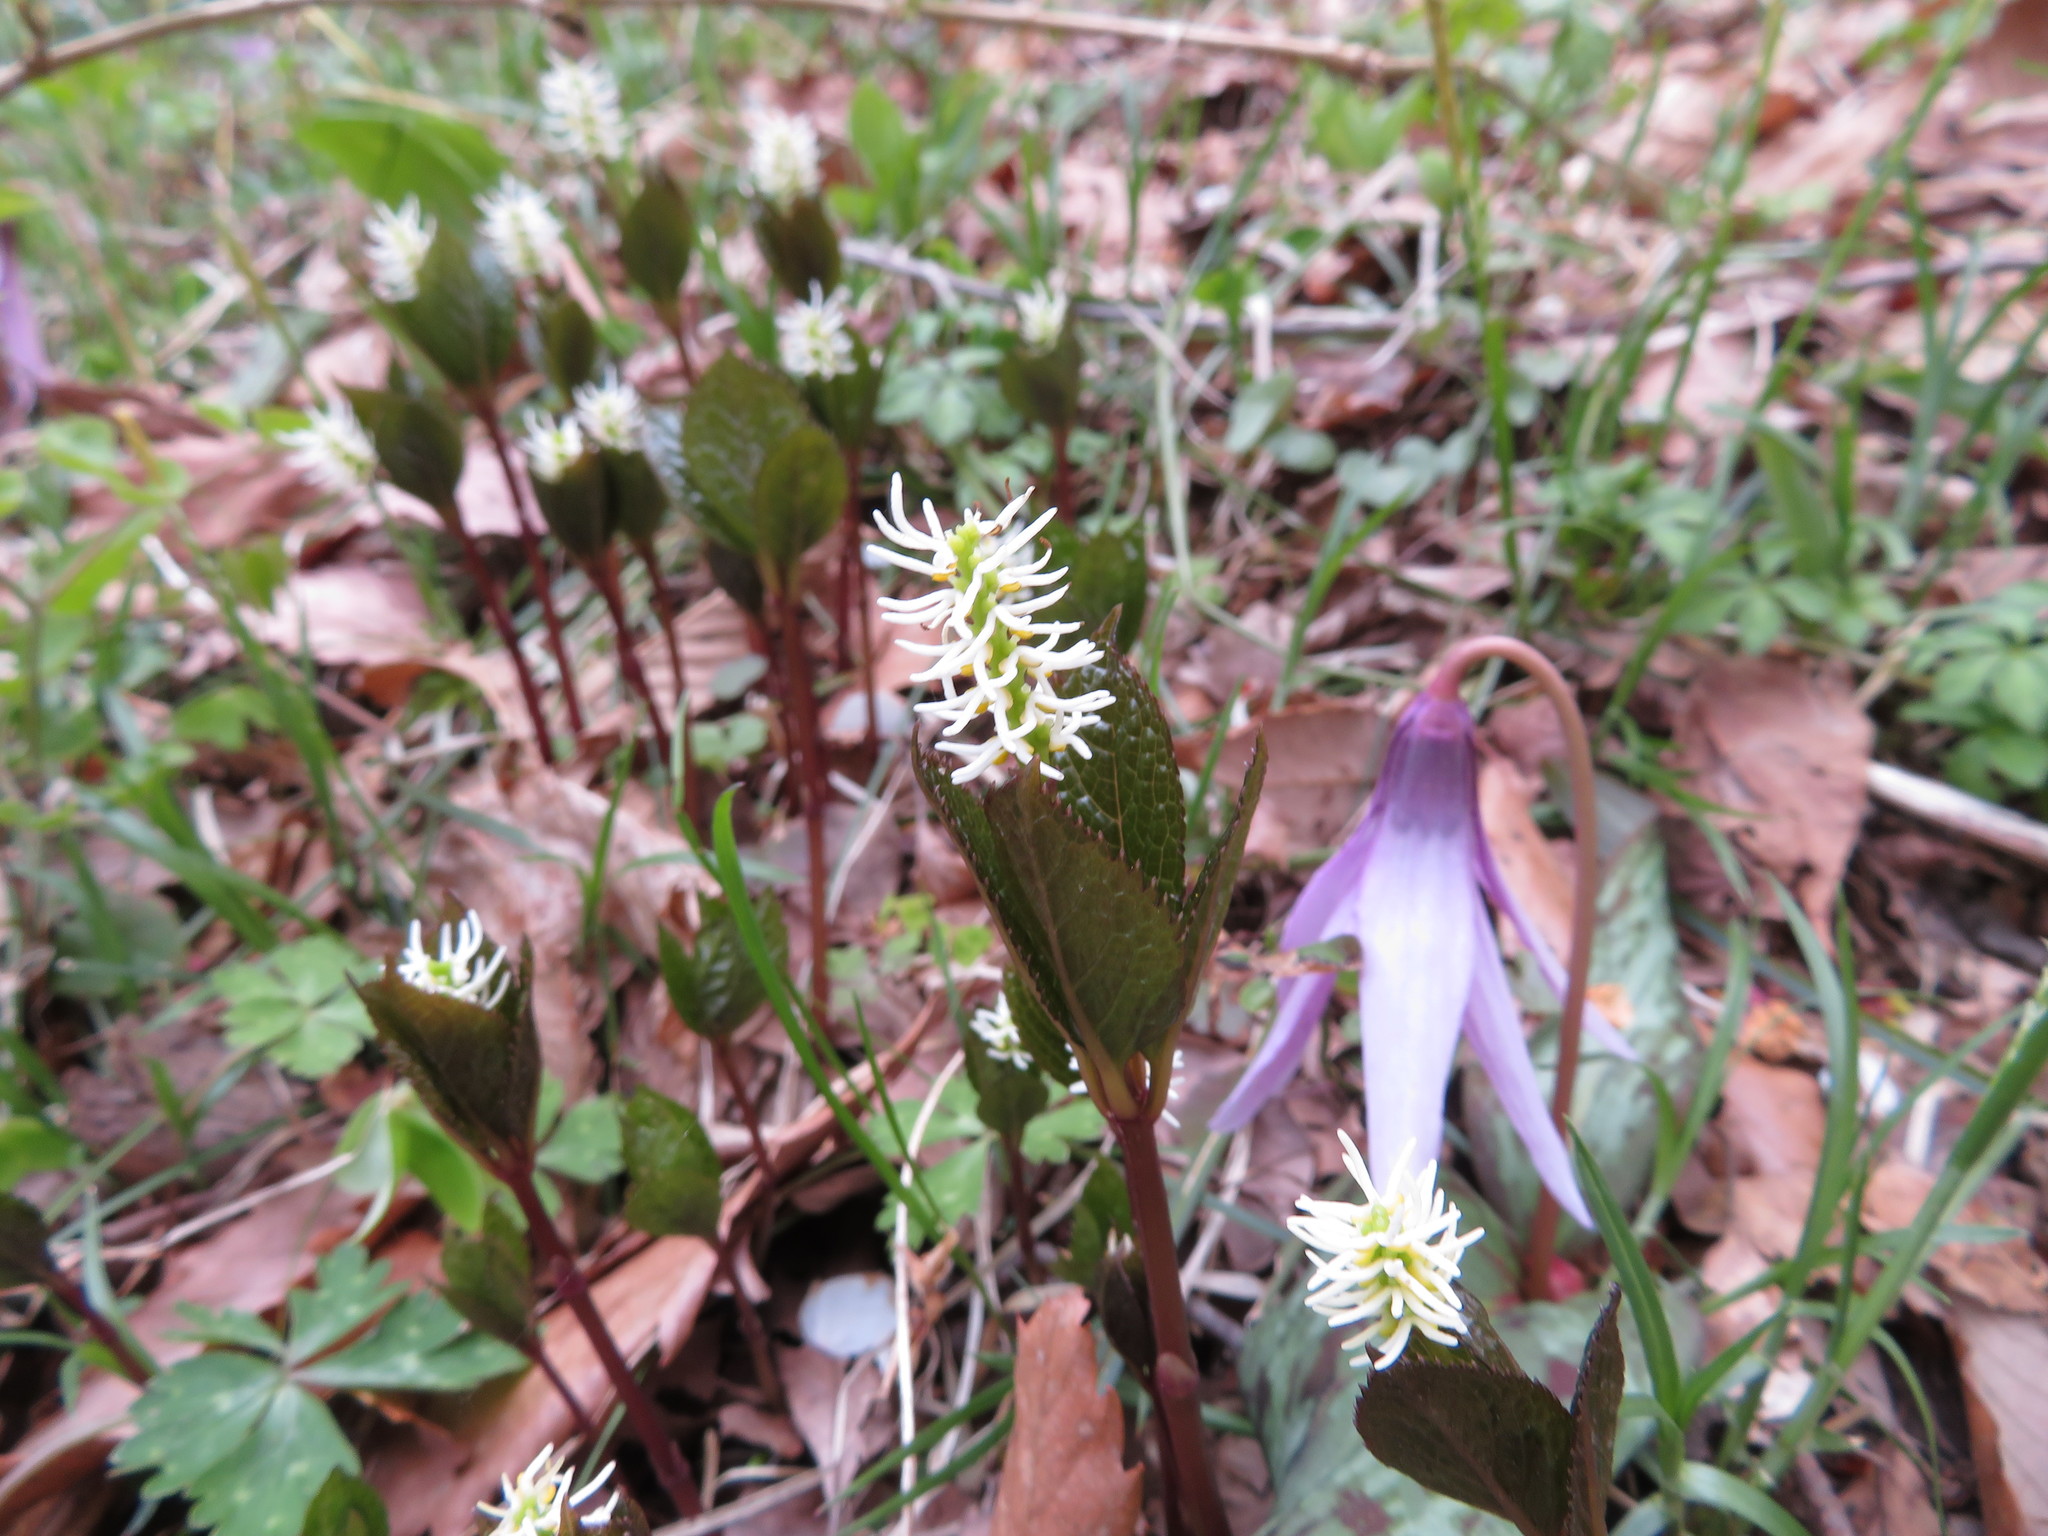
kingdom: Plantae
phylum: Tracheophyta
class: Magnoliopsida
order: Chloranthales
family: Chloranthaceae
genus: Chloranthus
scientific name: Chloranthus quadrifolius
